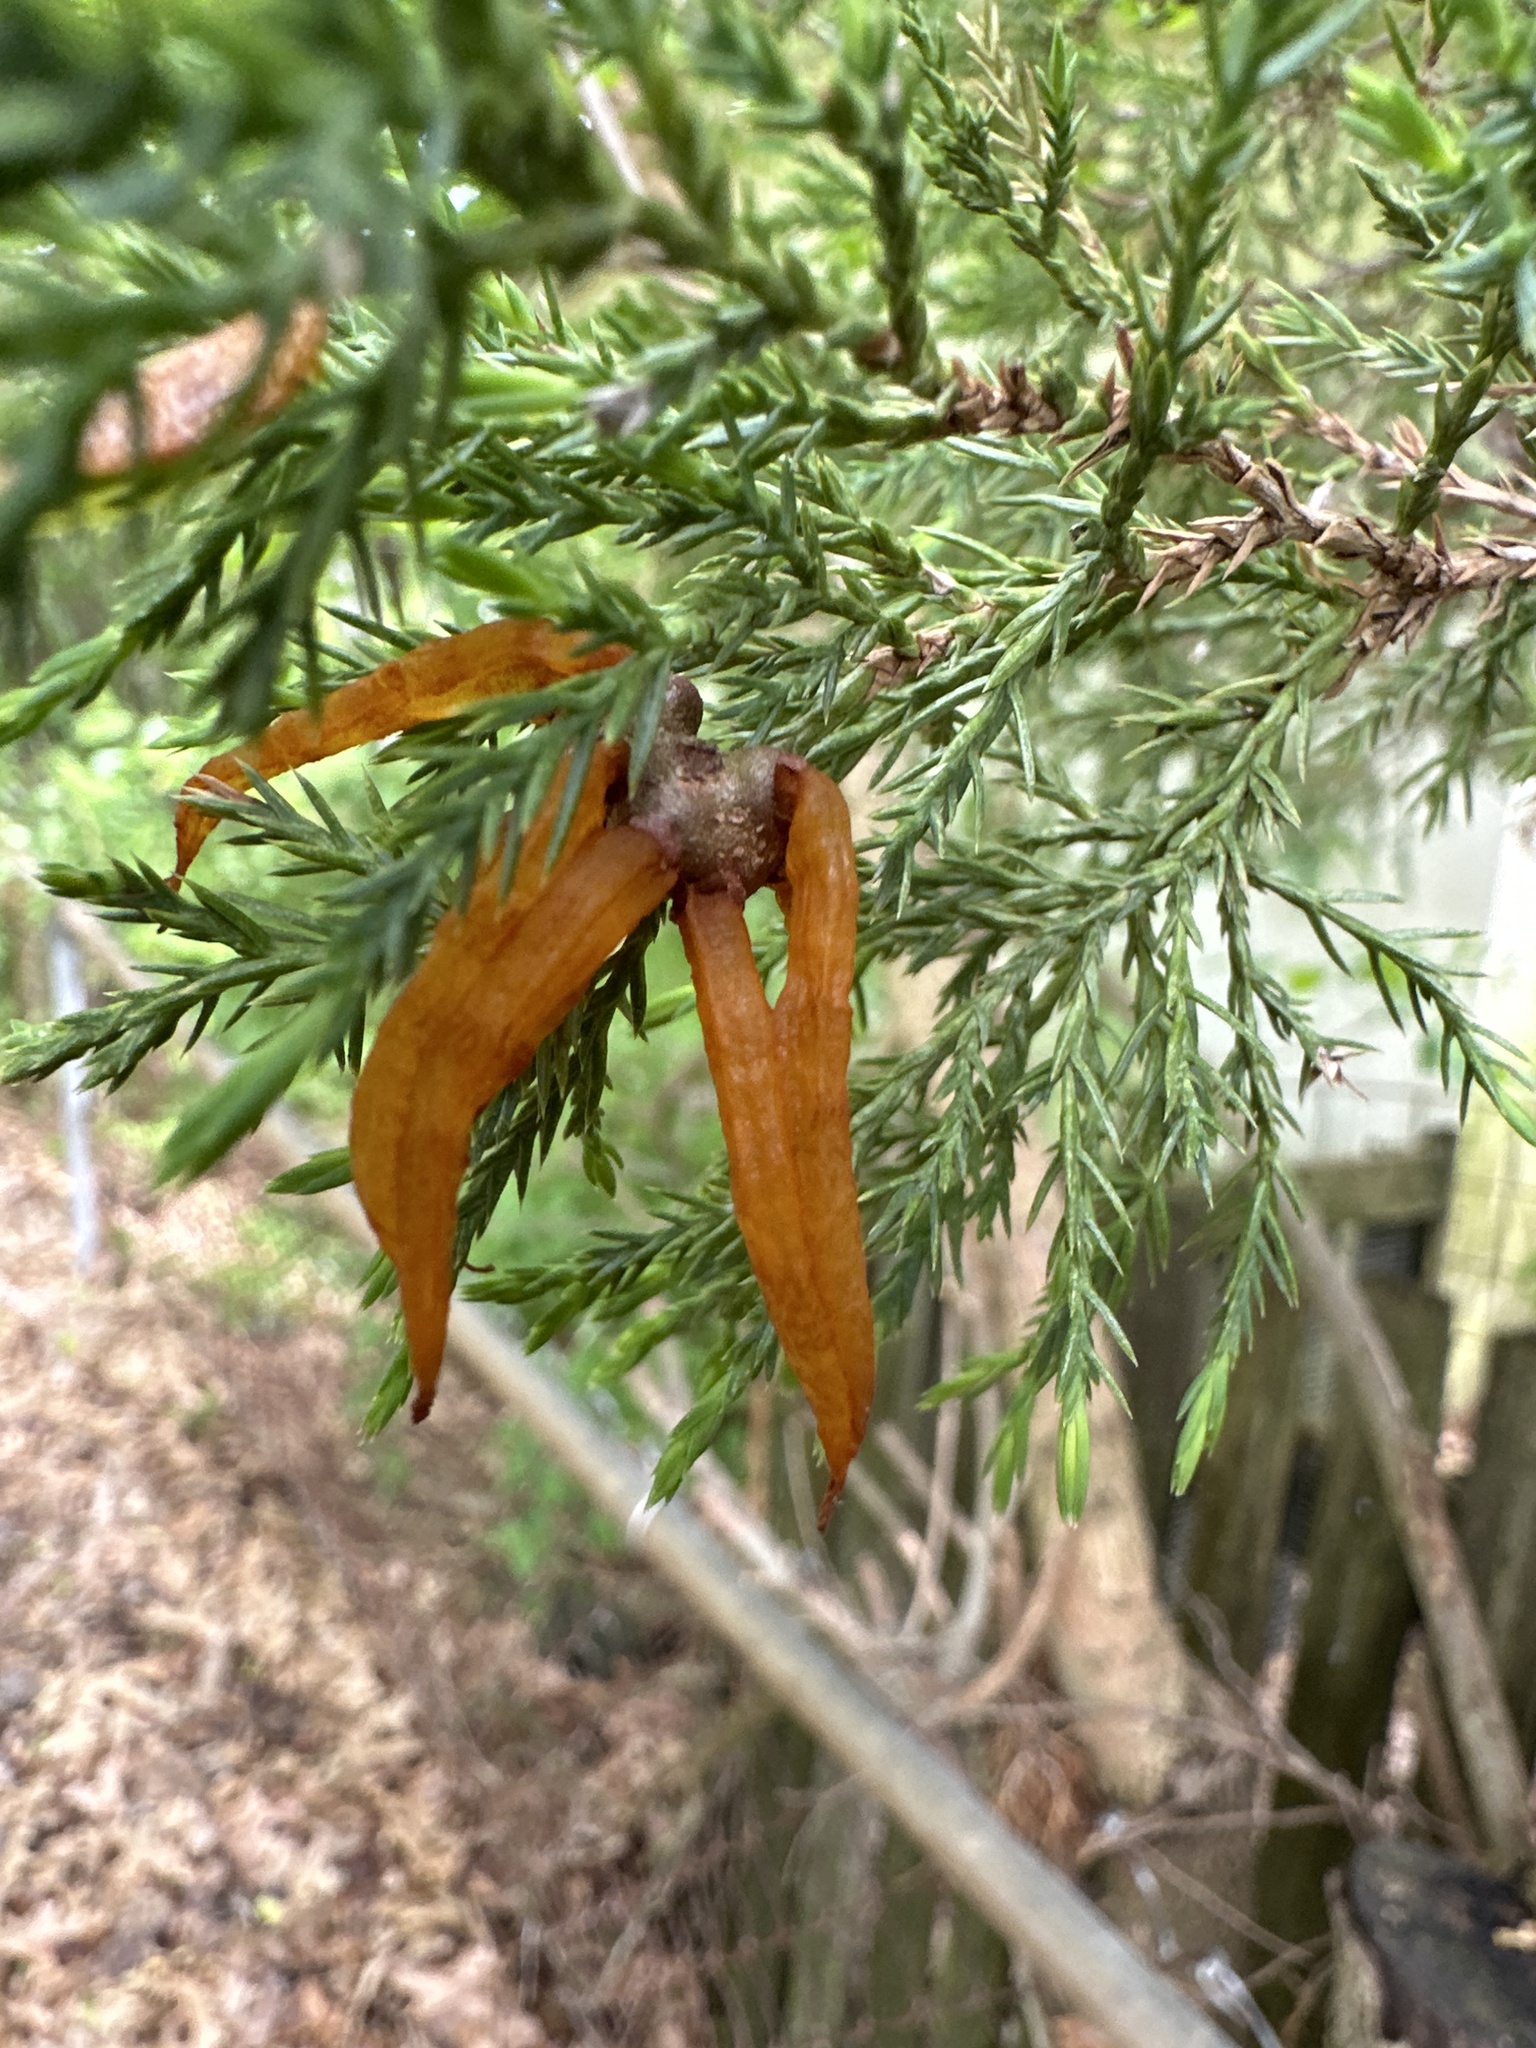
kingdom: Fungi
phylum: Basidiomycota
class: Pucciniomycetes
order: Pucciniales
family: Gymnosporangiaceae
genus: Gymnosporangium
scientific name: Gymnosporangium juniperi-virginianae
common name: Juniper-apple rust
